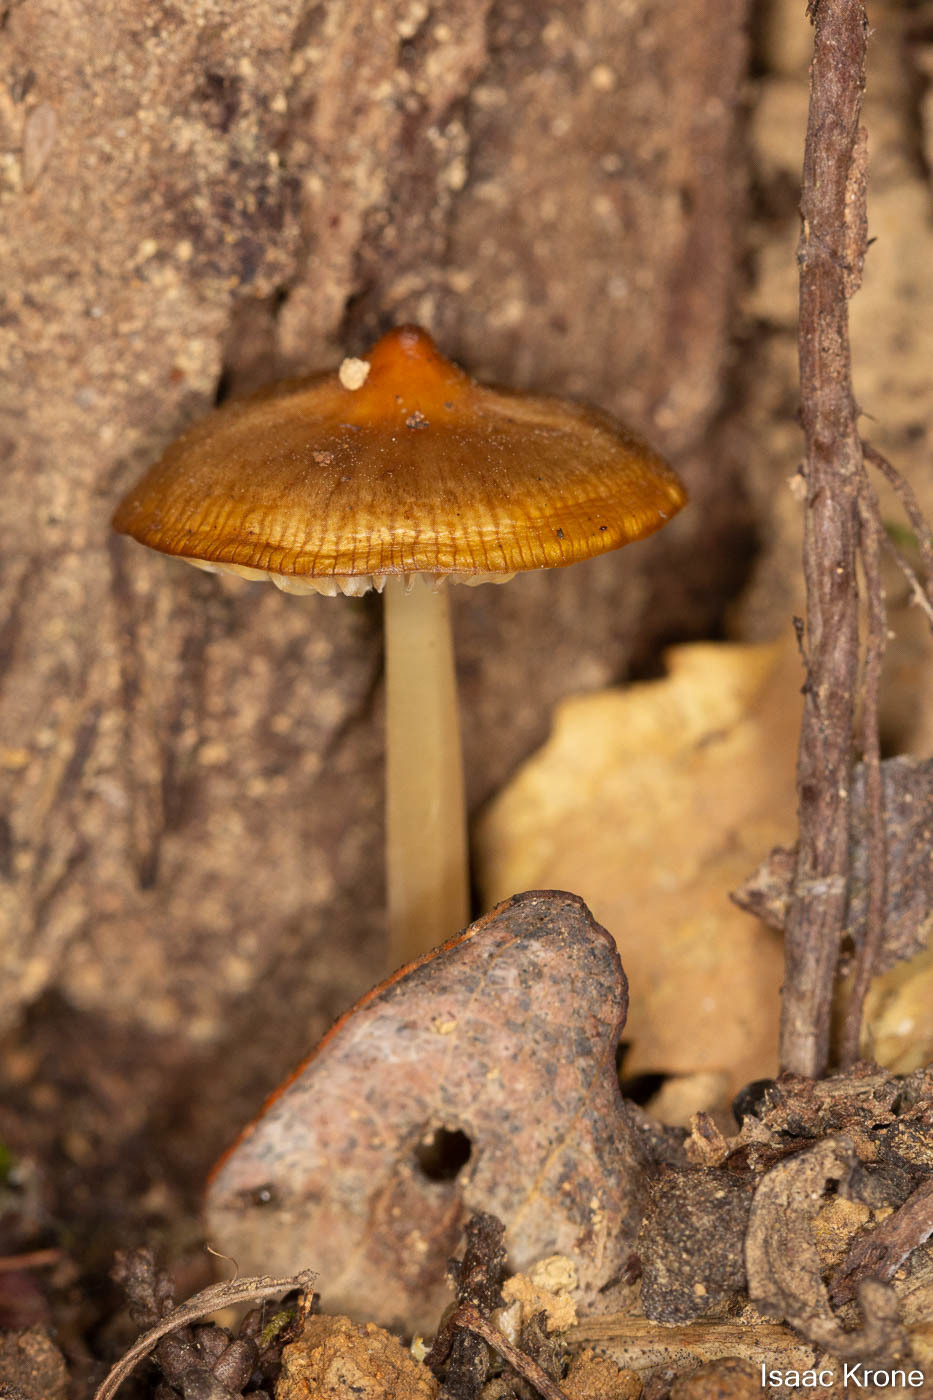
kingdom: Fungi
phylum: Basidiomycota
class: Agaricomycetes
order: Agaricales
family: Tricholomataceae
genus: Caulorhiza
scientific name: Caulorhiza umbonata
